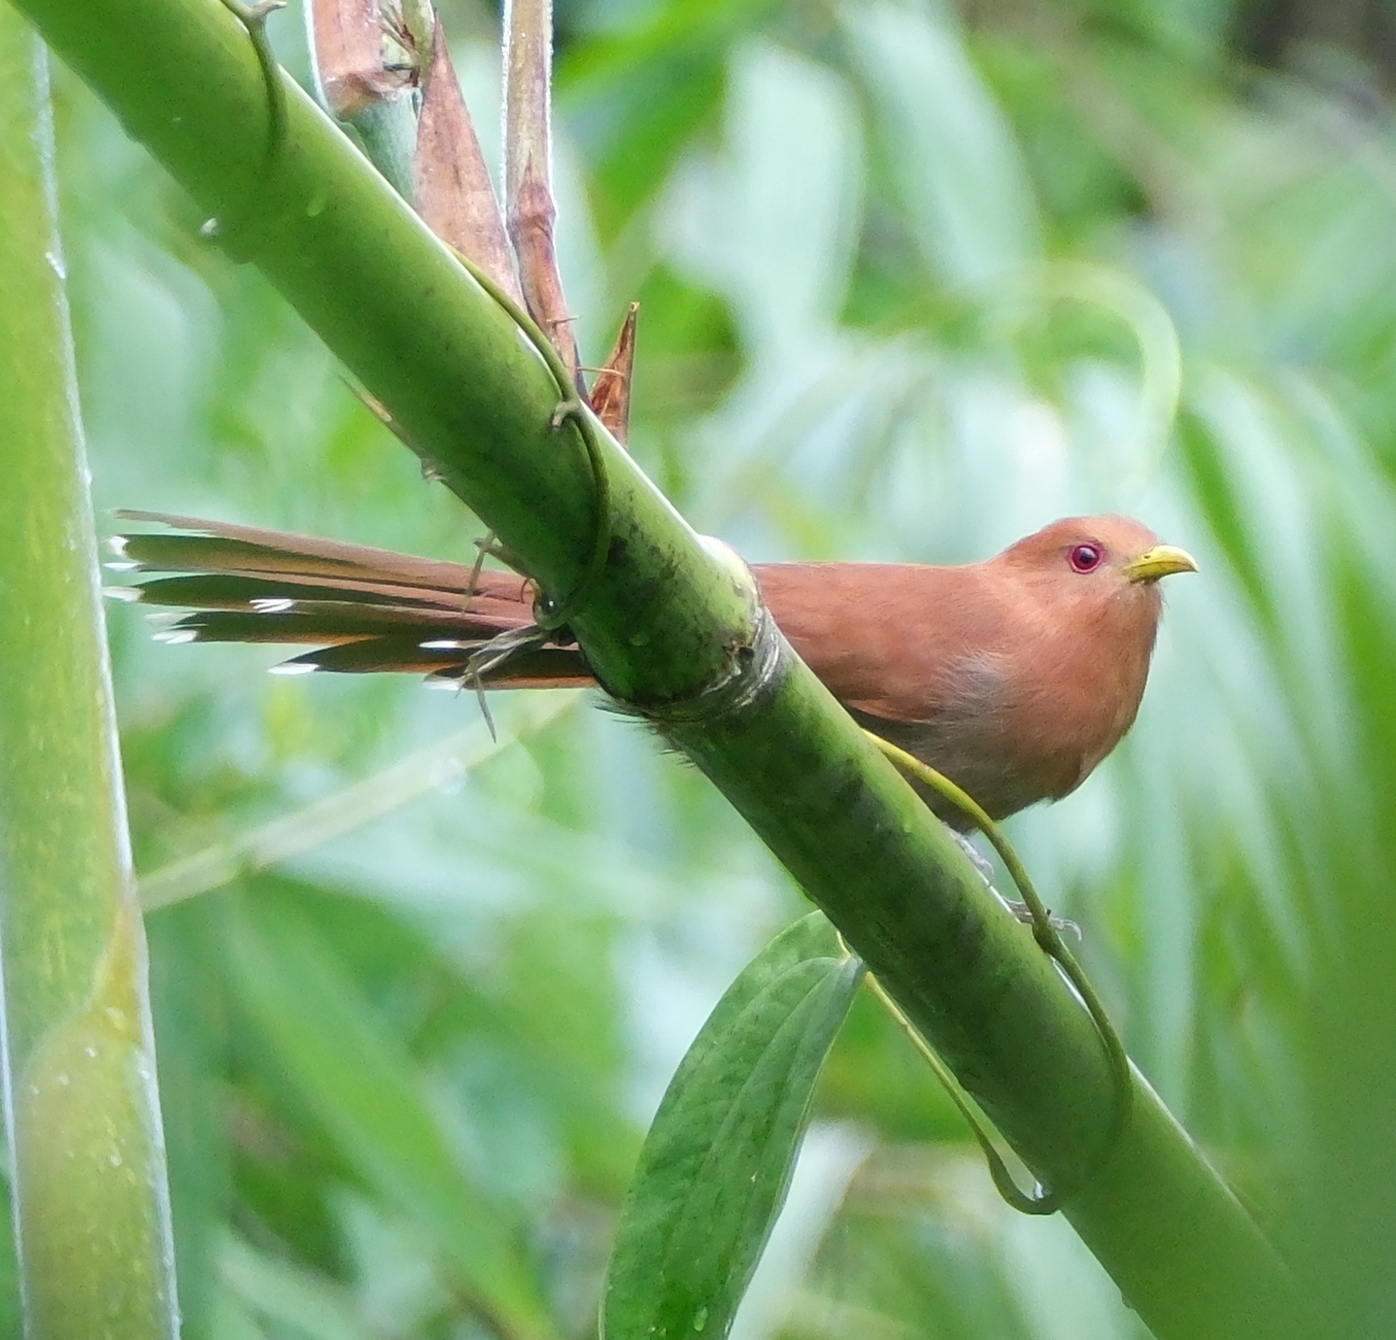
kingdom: Animalia
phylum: Chordata
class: Aves
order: Cuculiformes
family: Cuculidae
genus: Piaya
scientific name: Piaya minuta
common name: Little cuckoo
